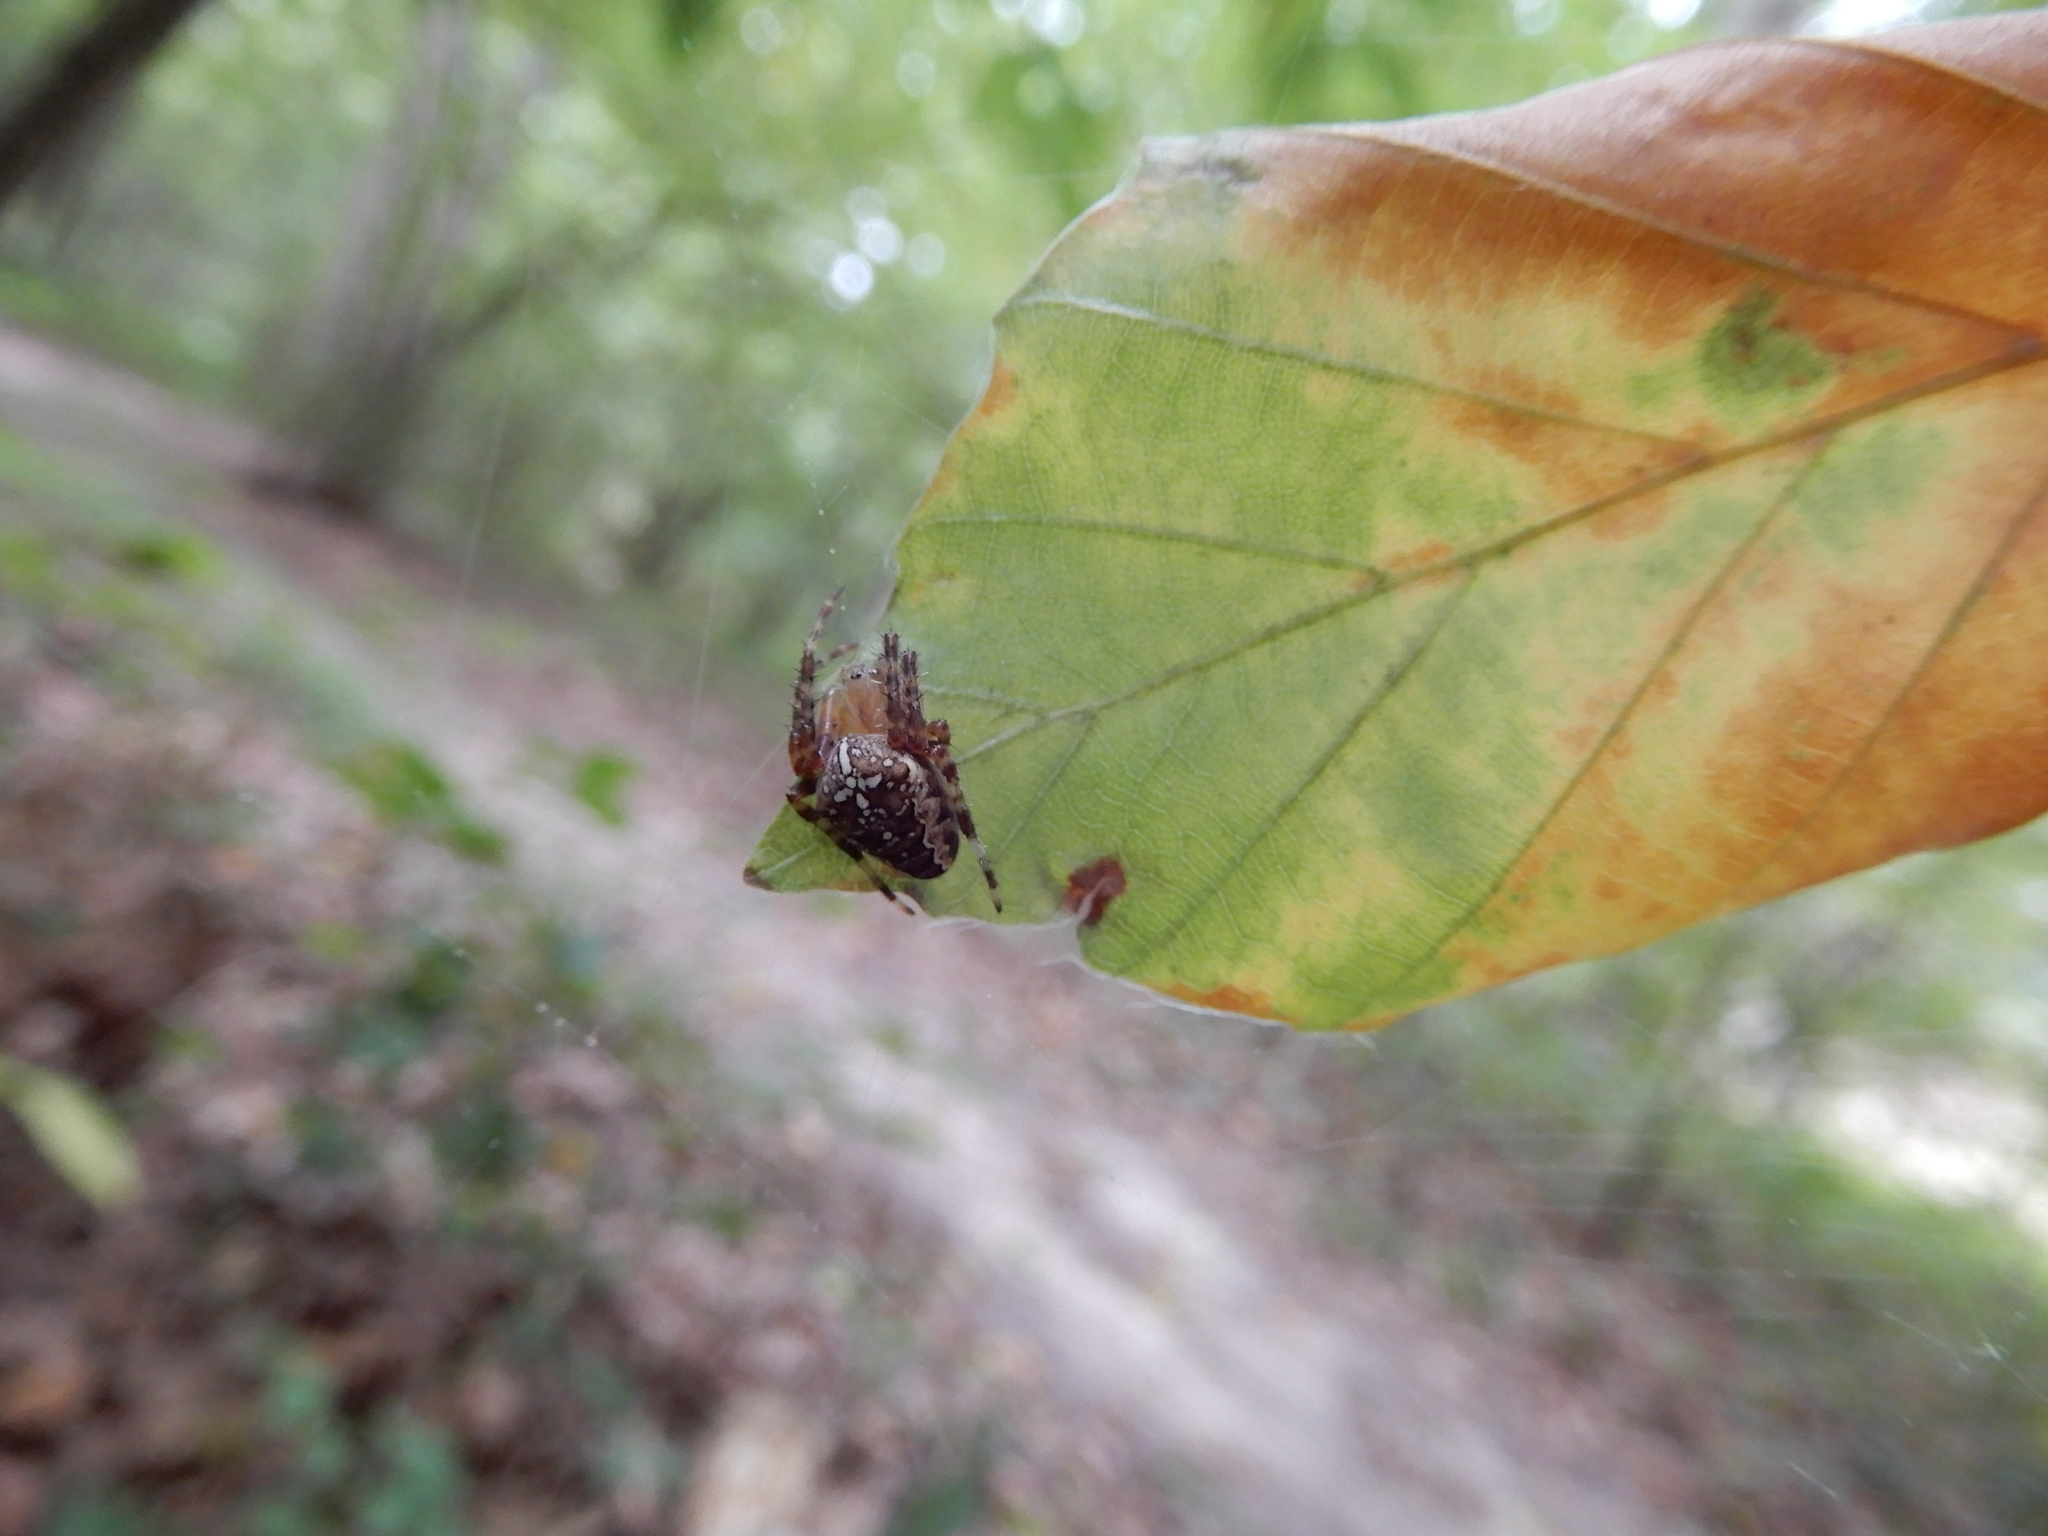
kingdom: Animalia
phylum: Arthropoda
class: Arachnida
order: Araneae
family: Araneidae
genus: Araneus
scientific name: Araneus diadematus
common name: Cross orbweaver
